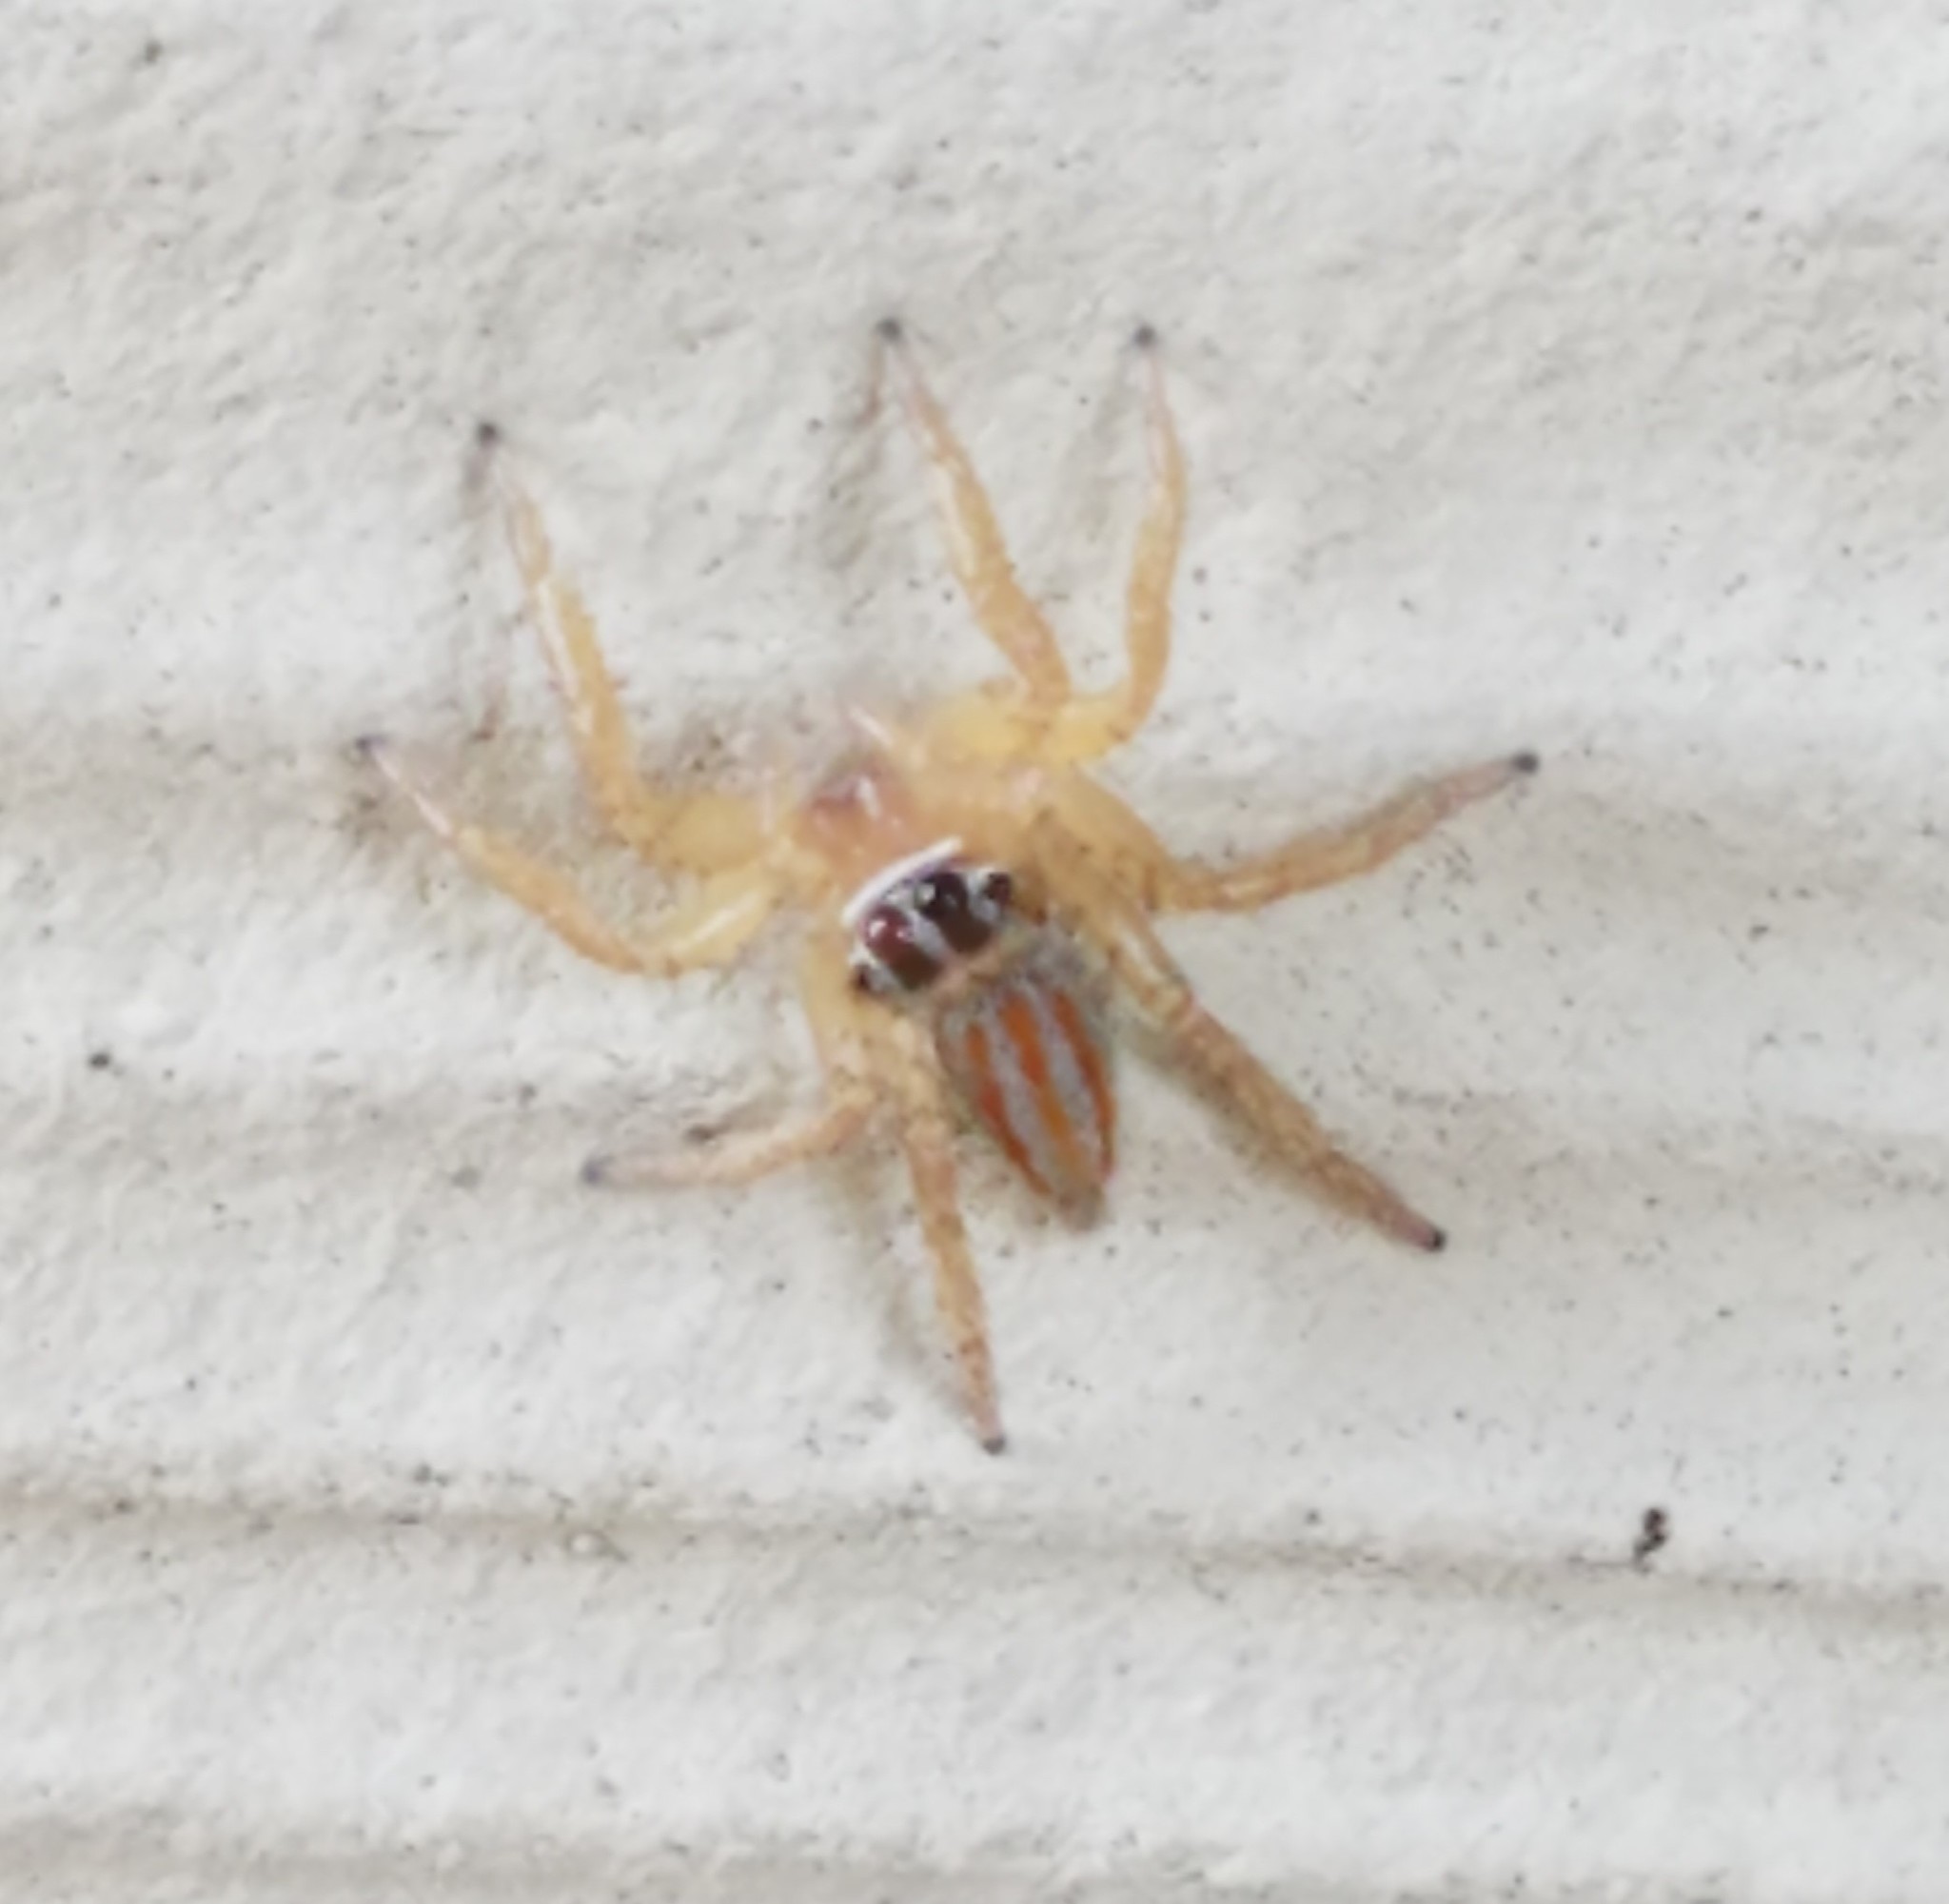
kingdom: Animalia
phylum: Arthropoda
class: Arachnida
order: Araneae
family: Salticidae
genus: Paramaevia
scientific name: Paramaevia poultoni
